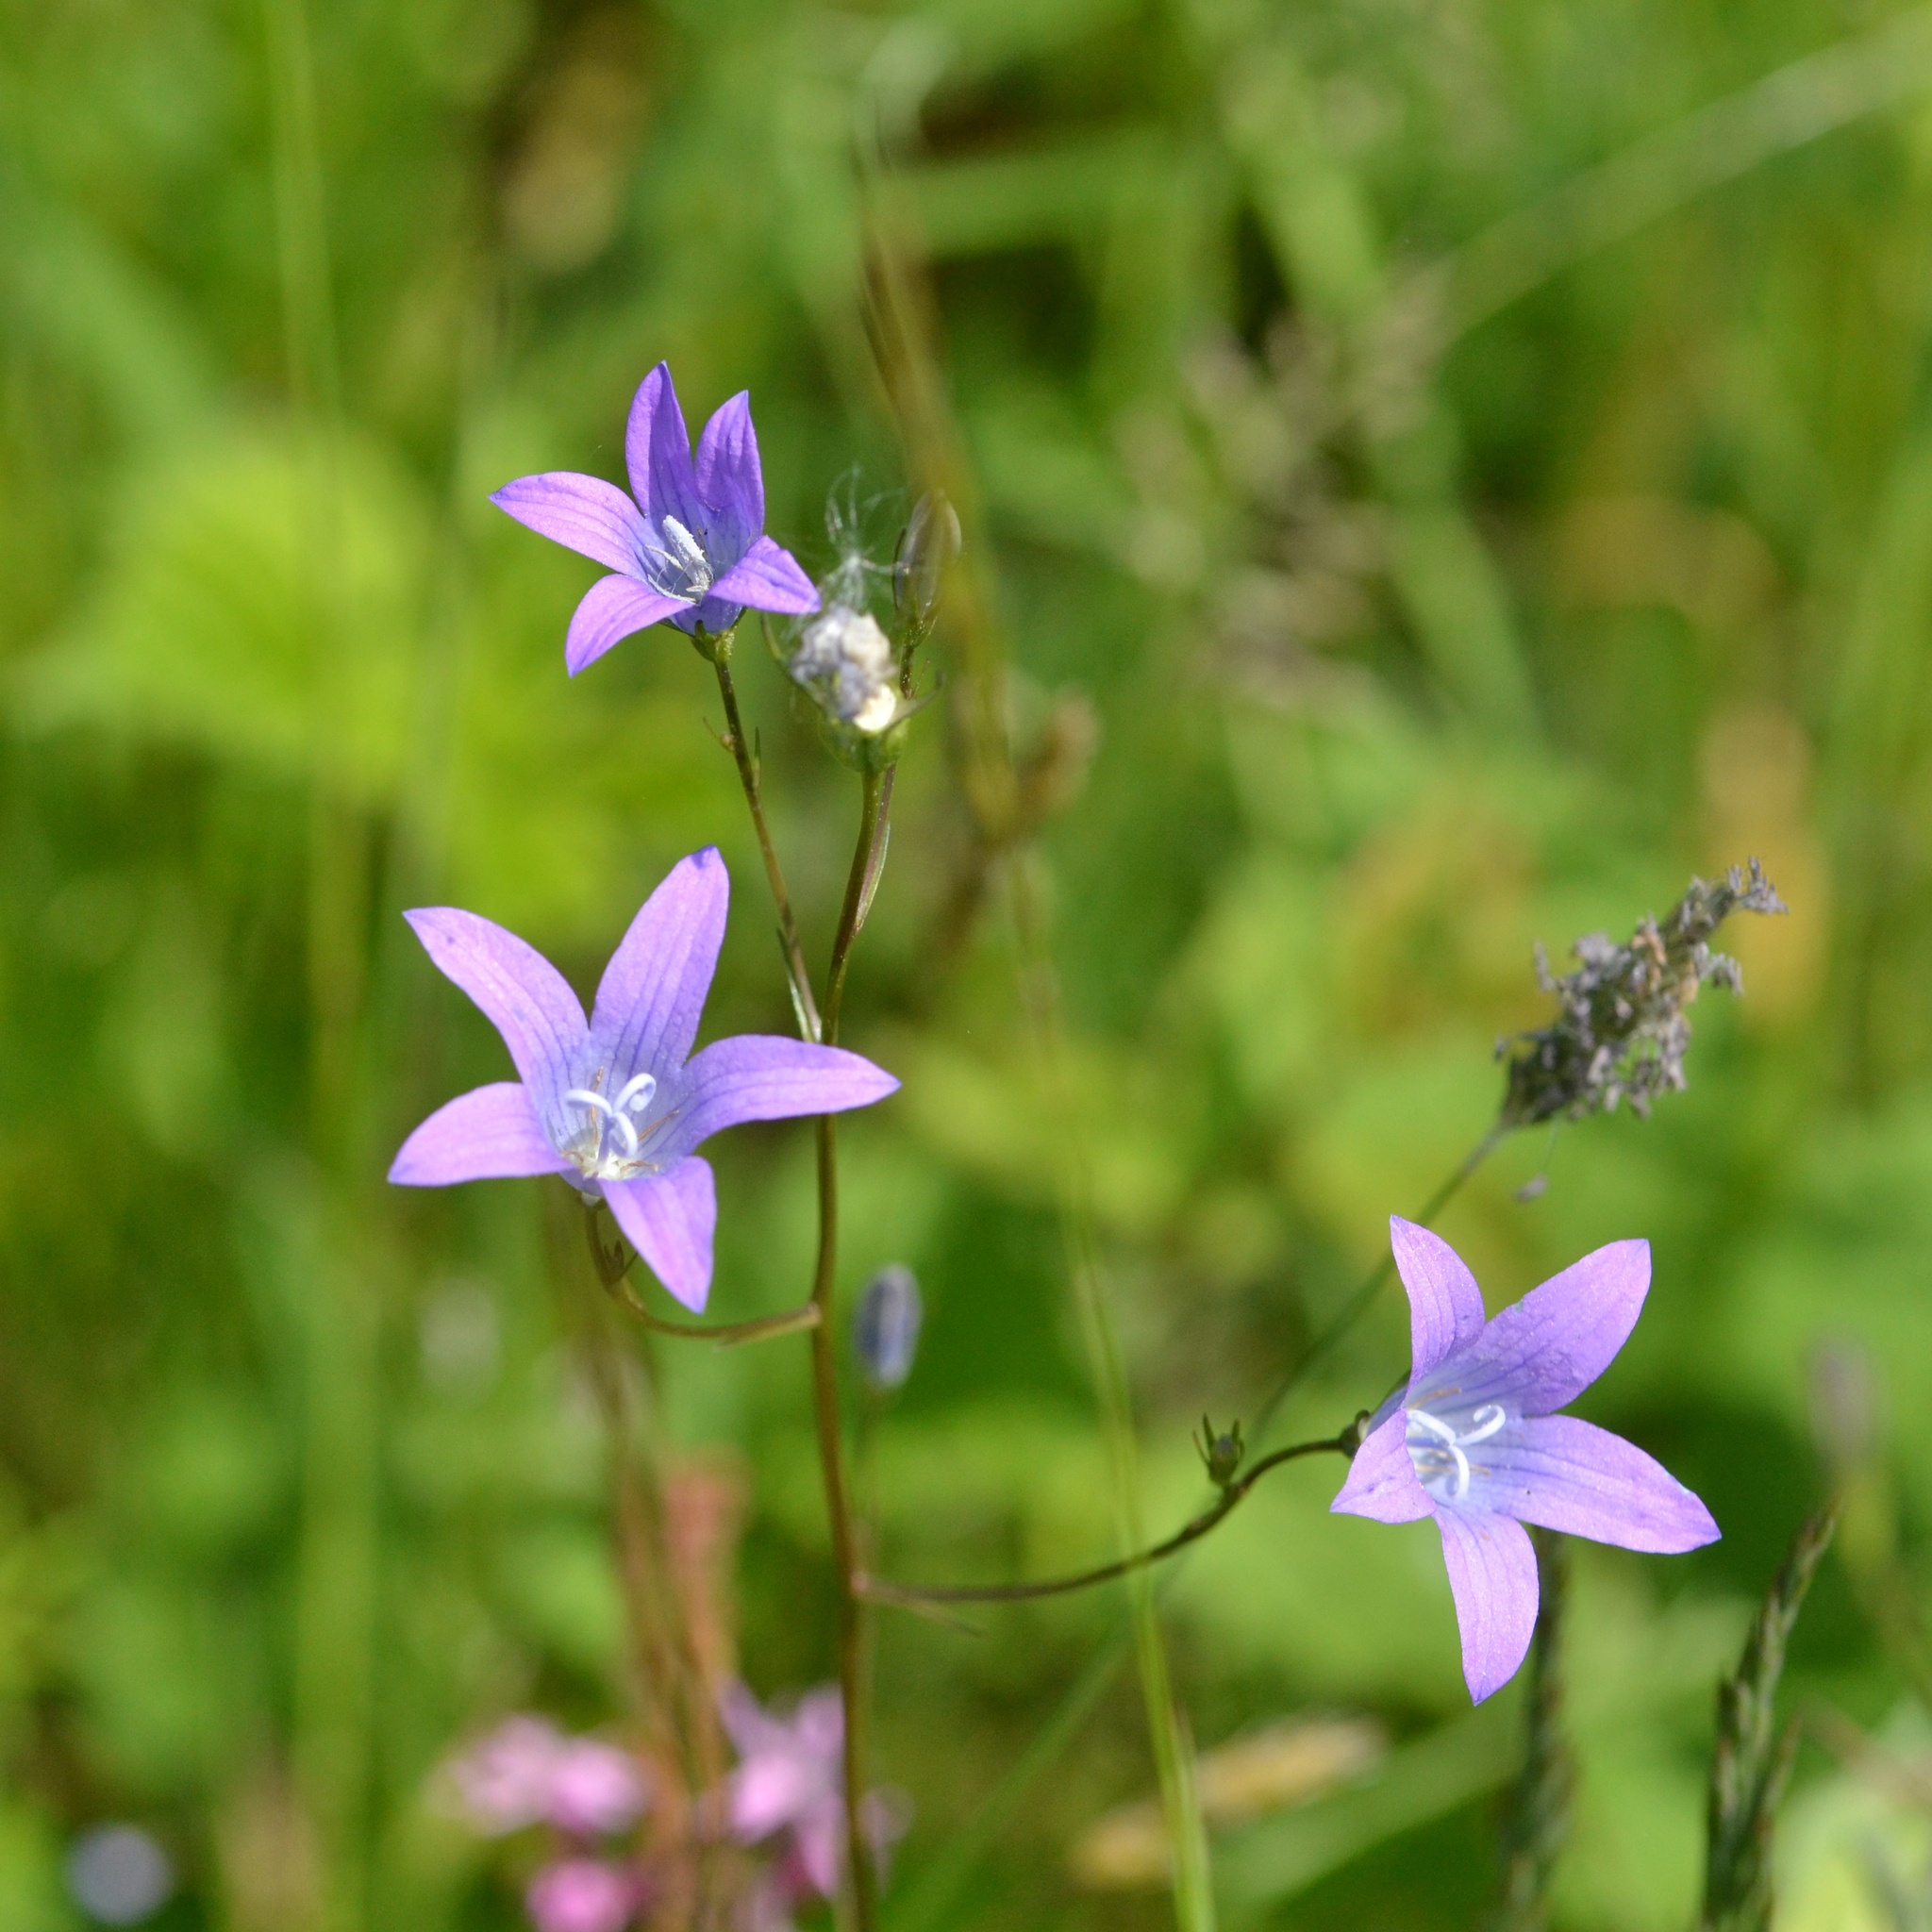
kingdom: Plantae
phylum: Tracheophyta
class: Magnoliopsida
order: Asterales
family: Campanulaceae
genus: Campanula
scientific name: Campanula patula
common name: Spreading bellflower
